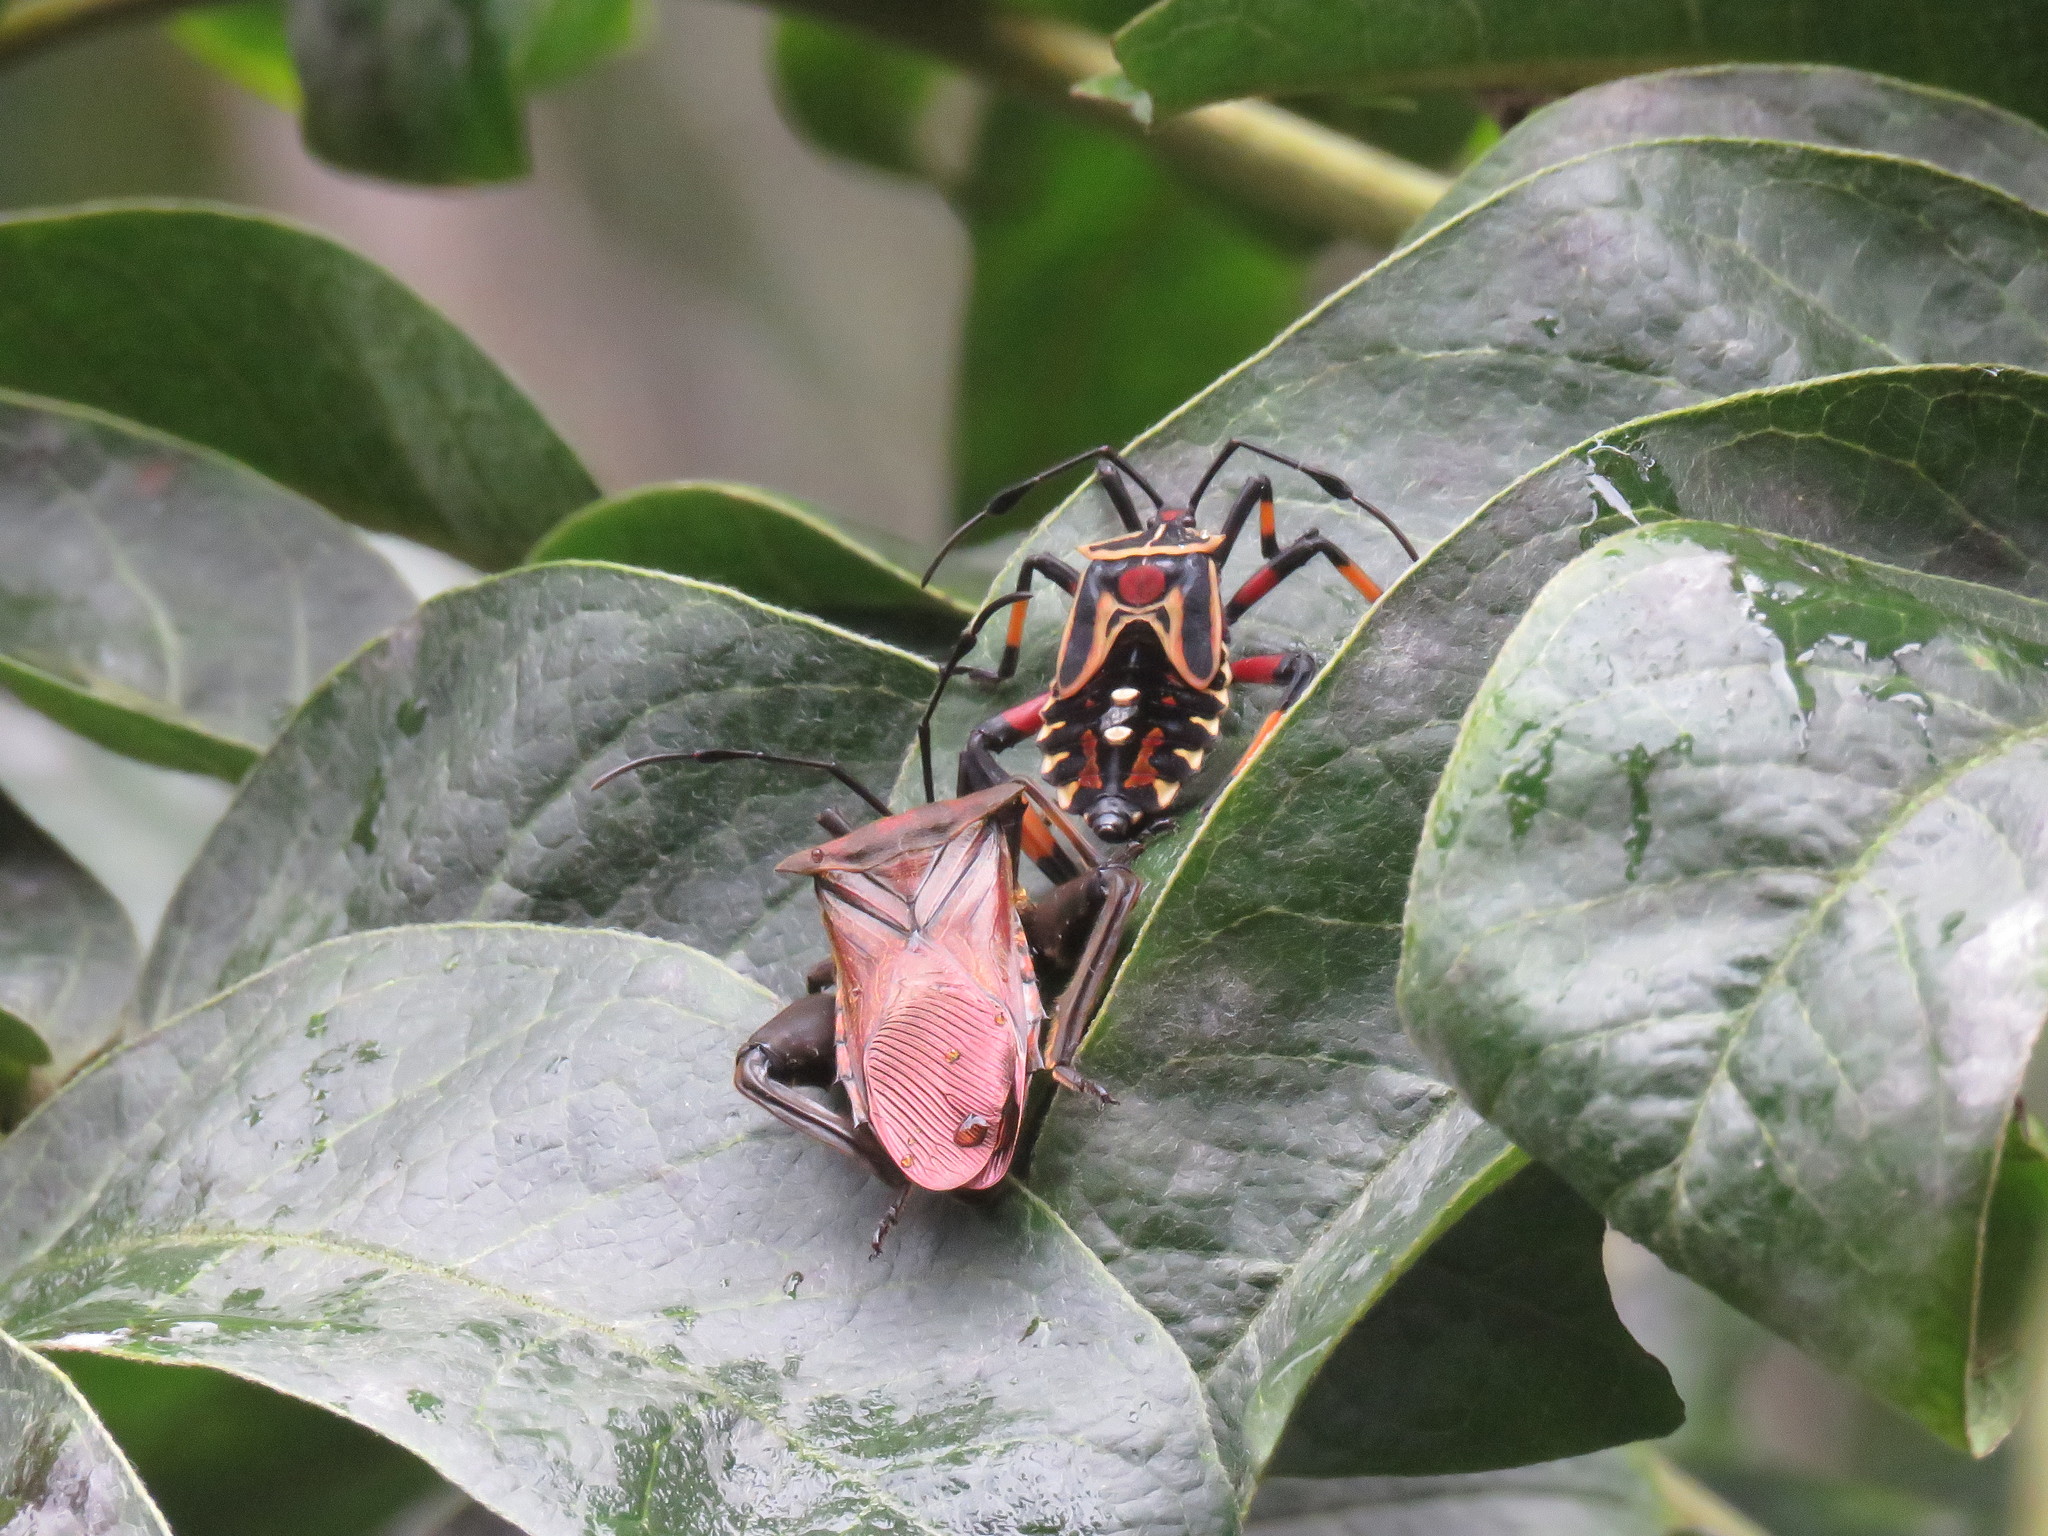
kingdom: Animalia
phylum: Arthropoda
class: Insecta
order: Hemiptera
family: Coreidae
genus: Thasus
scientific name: Thasus heteropus
